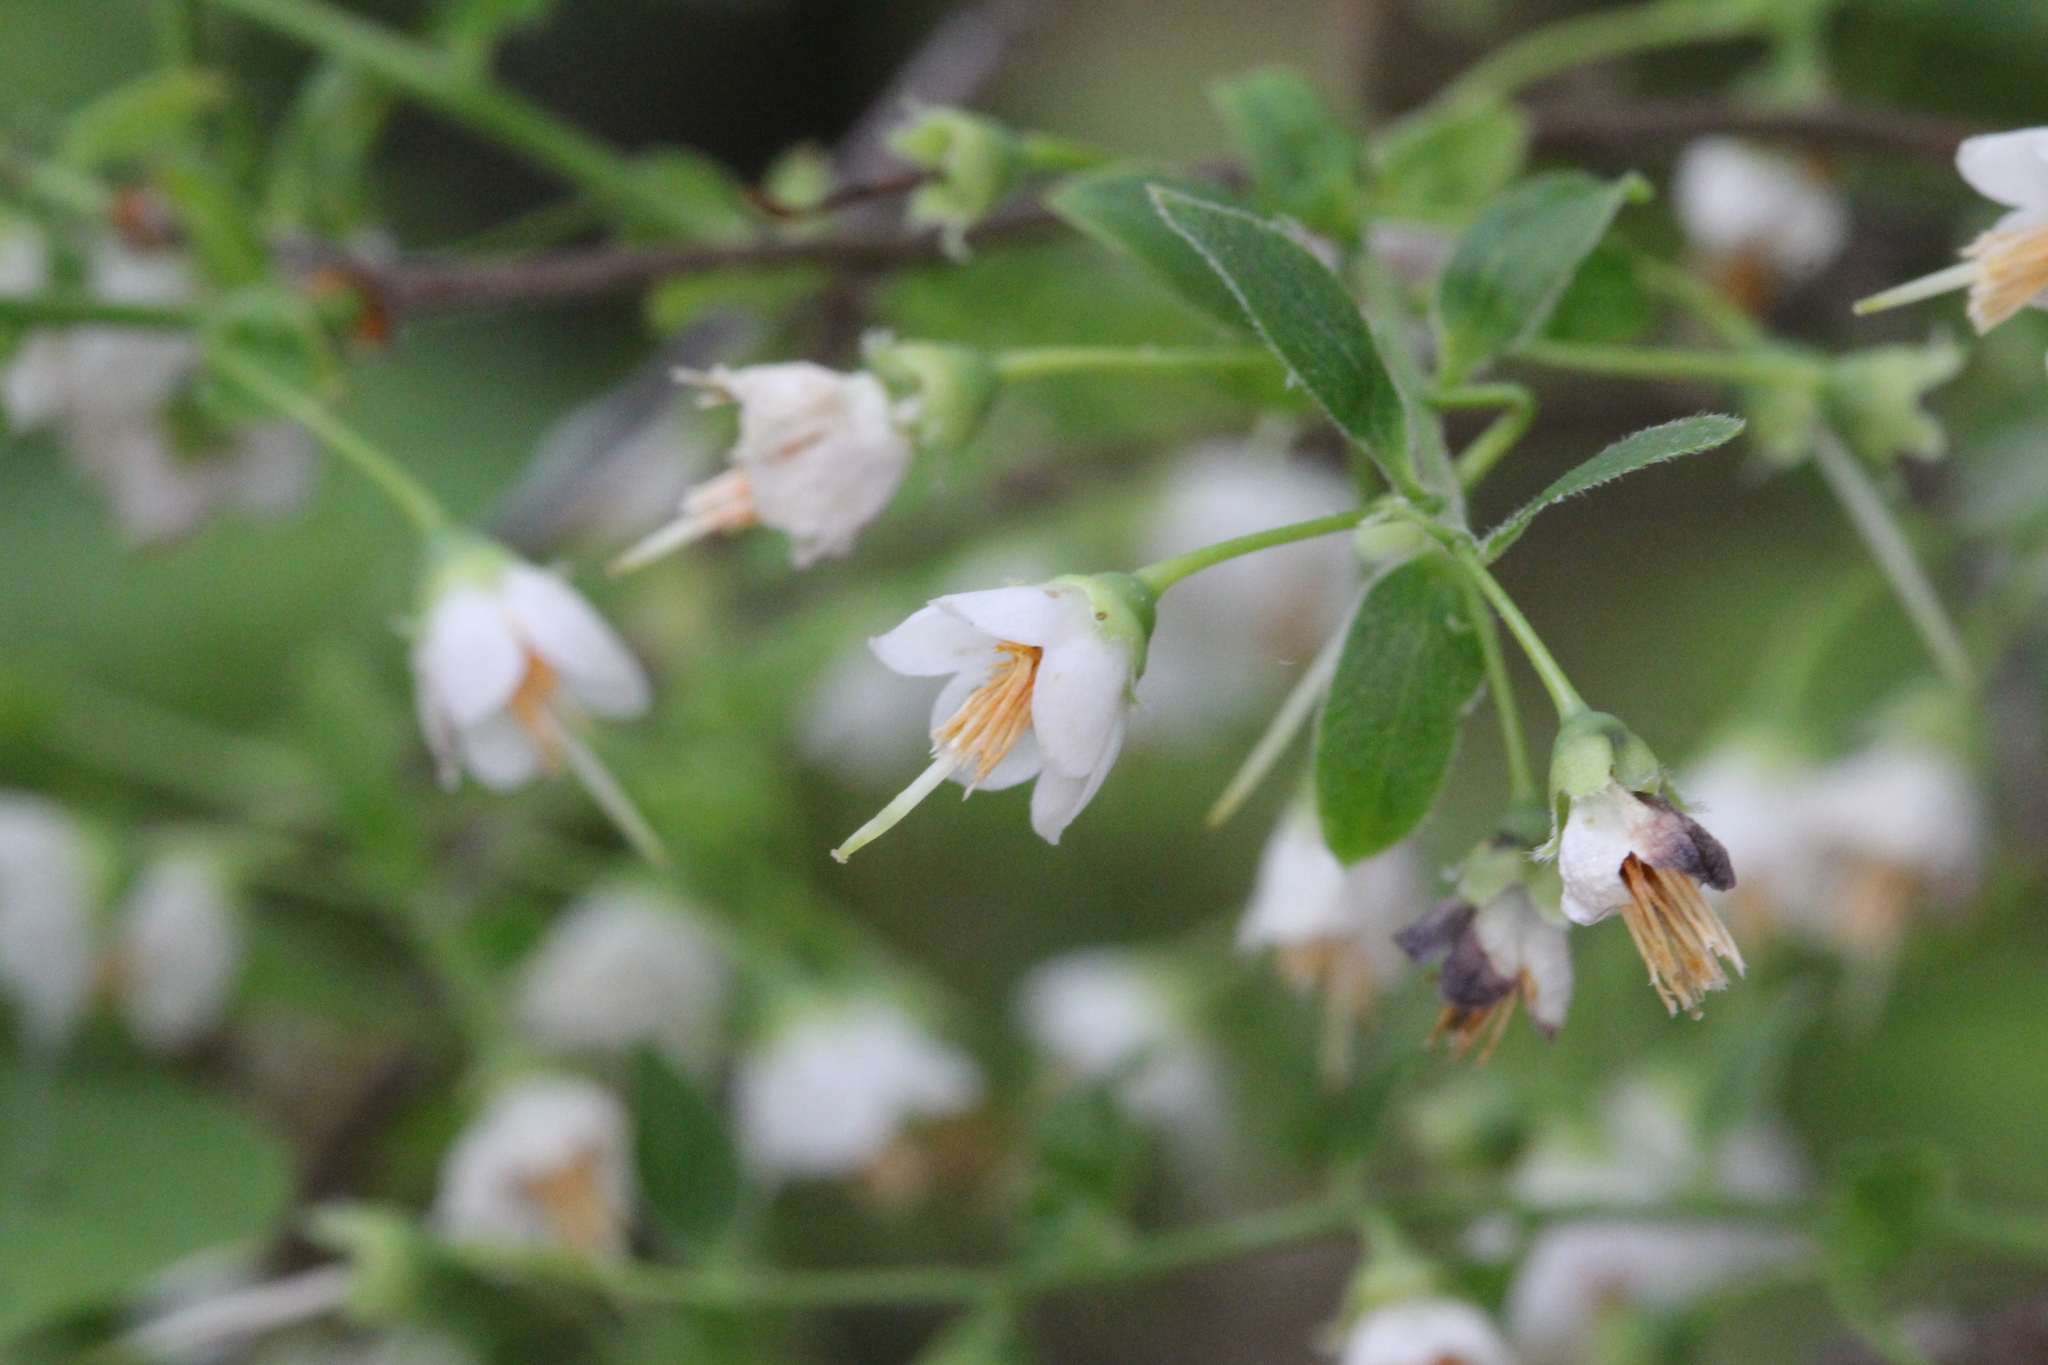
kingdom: Plantae
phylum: Tracheophyta
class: Magnoliopsida
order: Ericales
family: Ericaceae
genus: Vaccinium
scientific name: Vaccinium stamineum
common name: Deerberry
